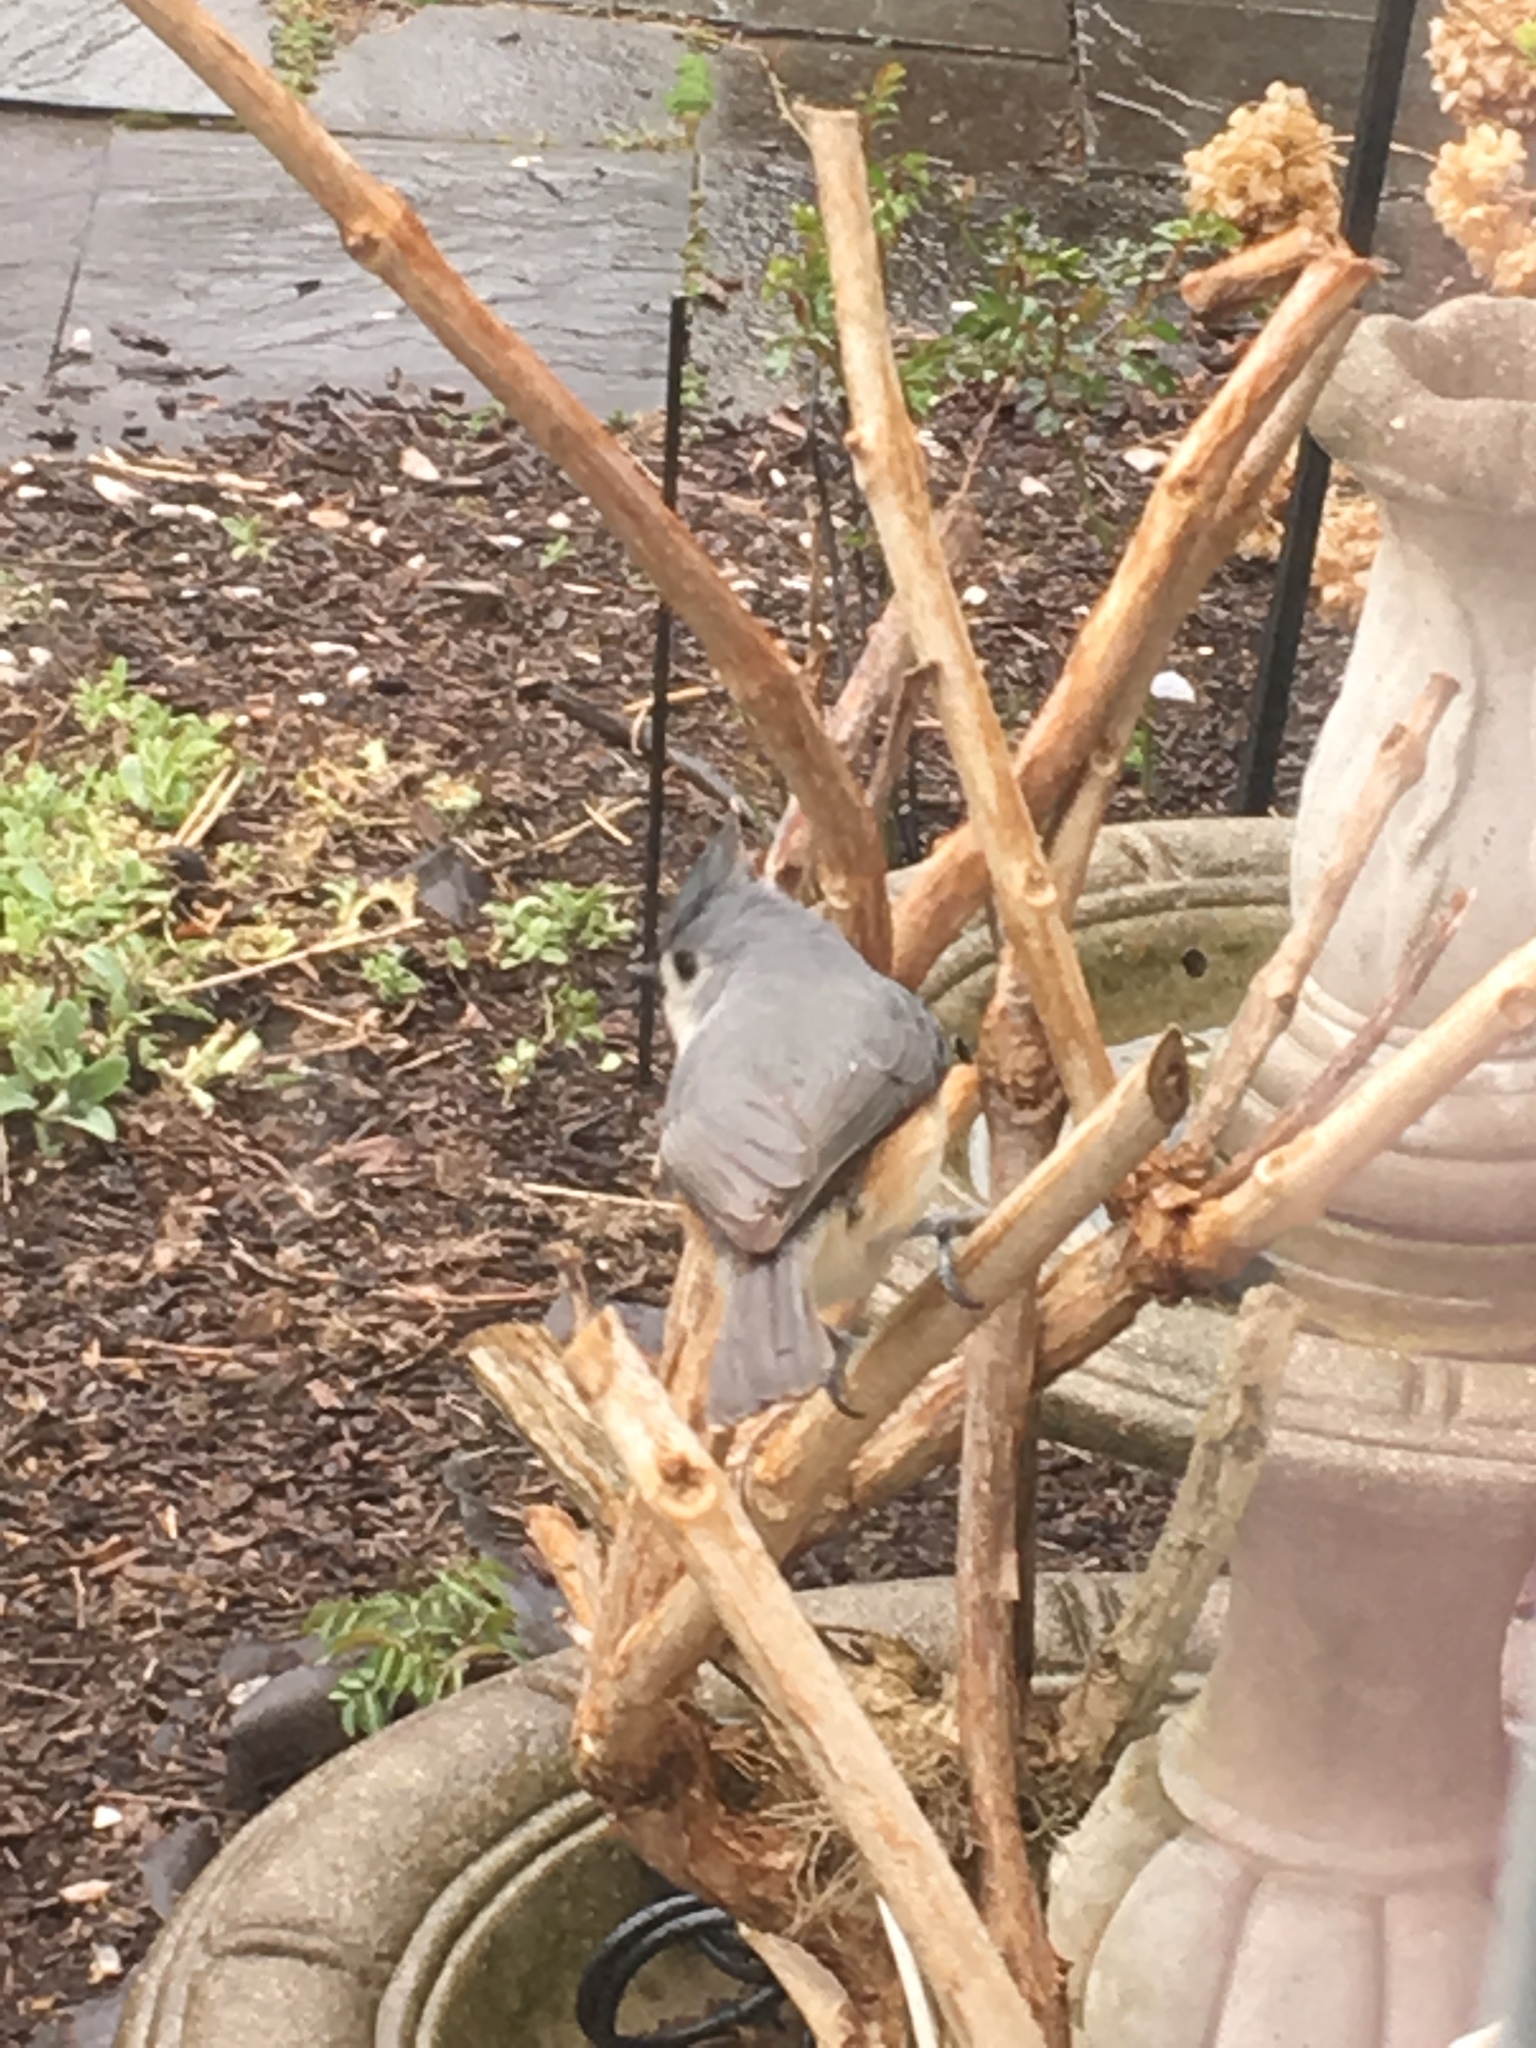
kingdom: Animalia
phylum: Chordata
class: Aves
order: Passeriformes
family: Paridae
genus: Baeolophus
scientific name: Baeolophus bicolor
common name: Tufted titmouse
